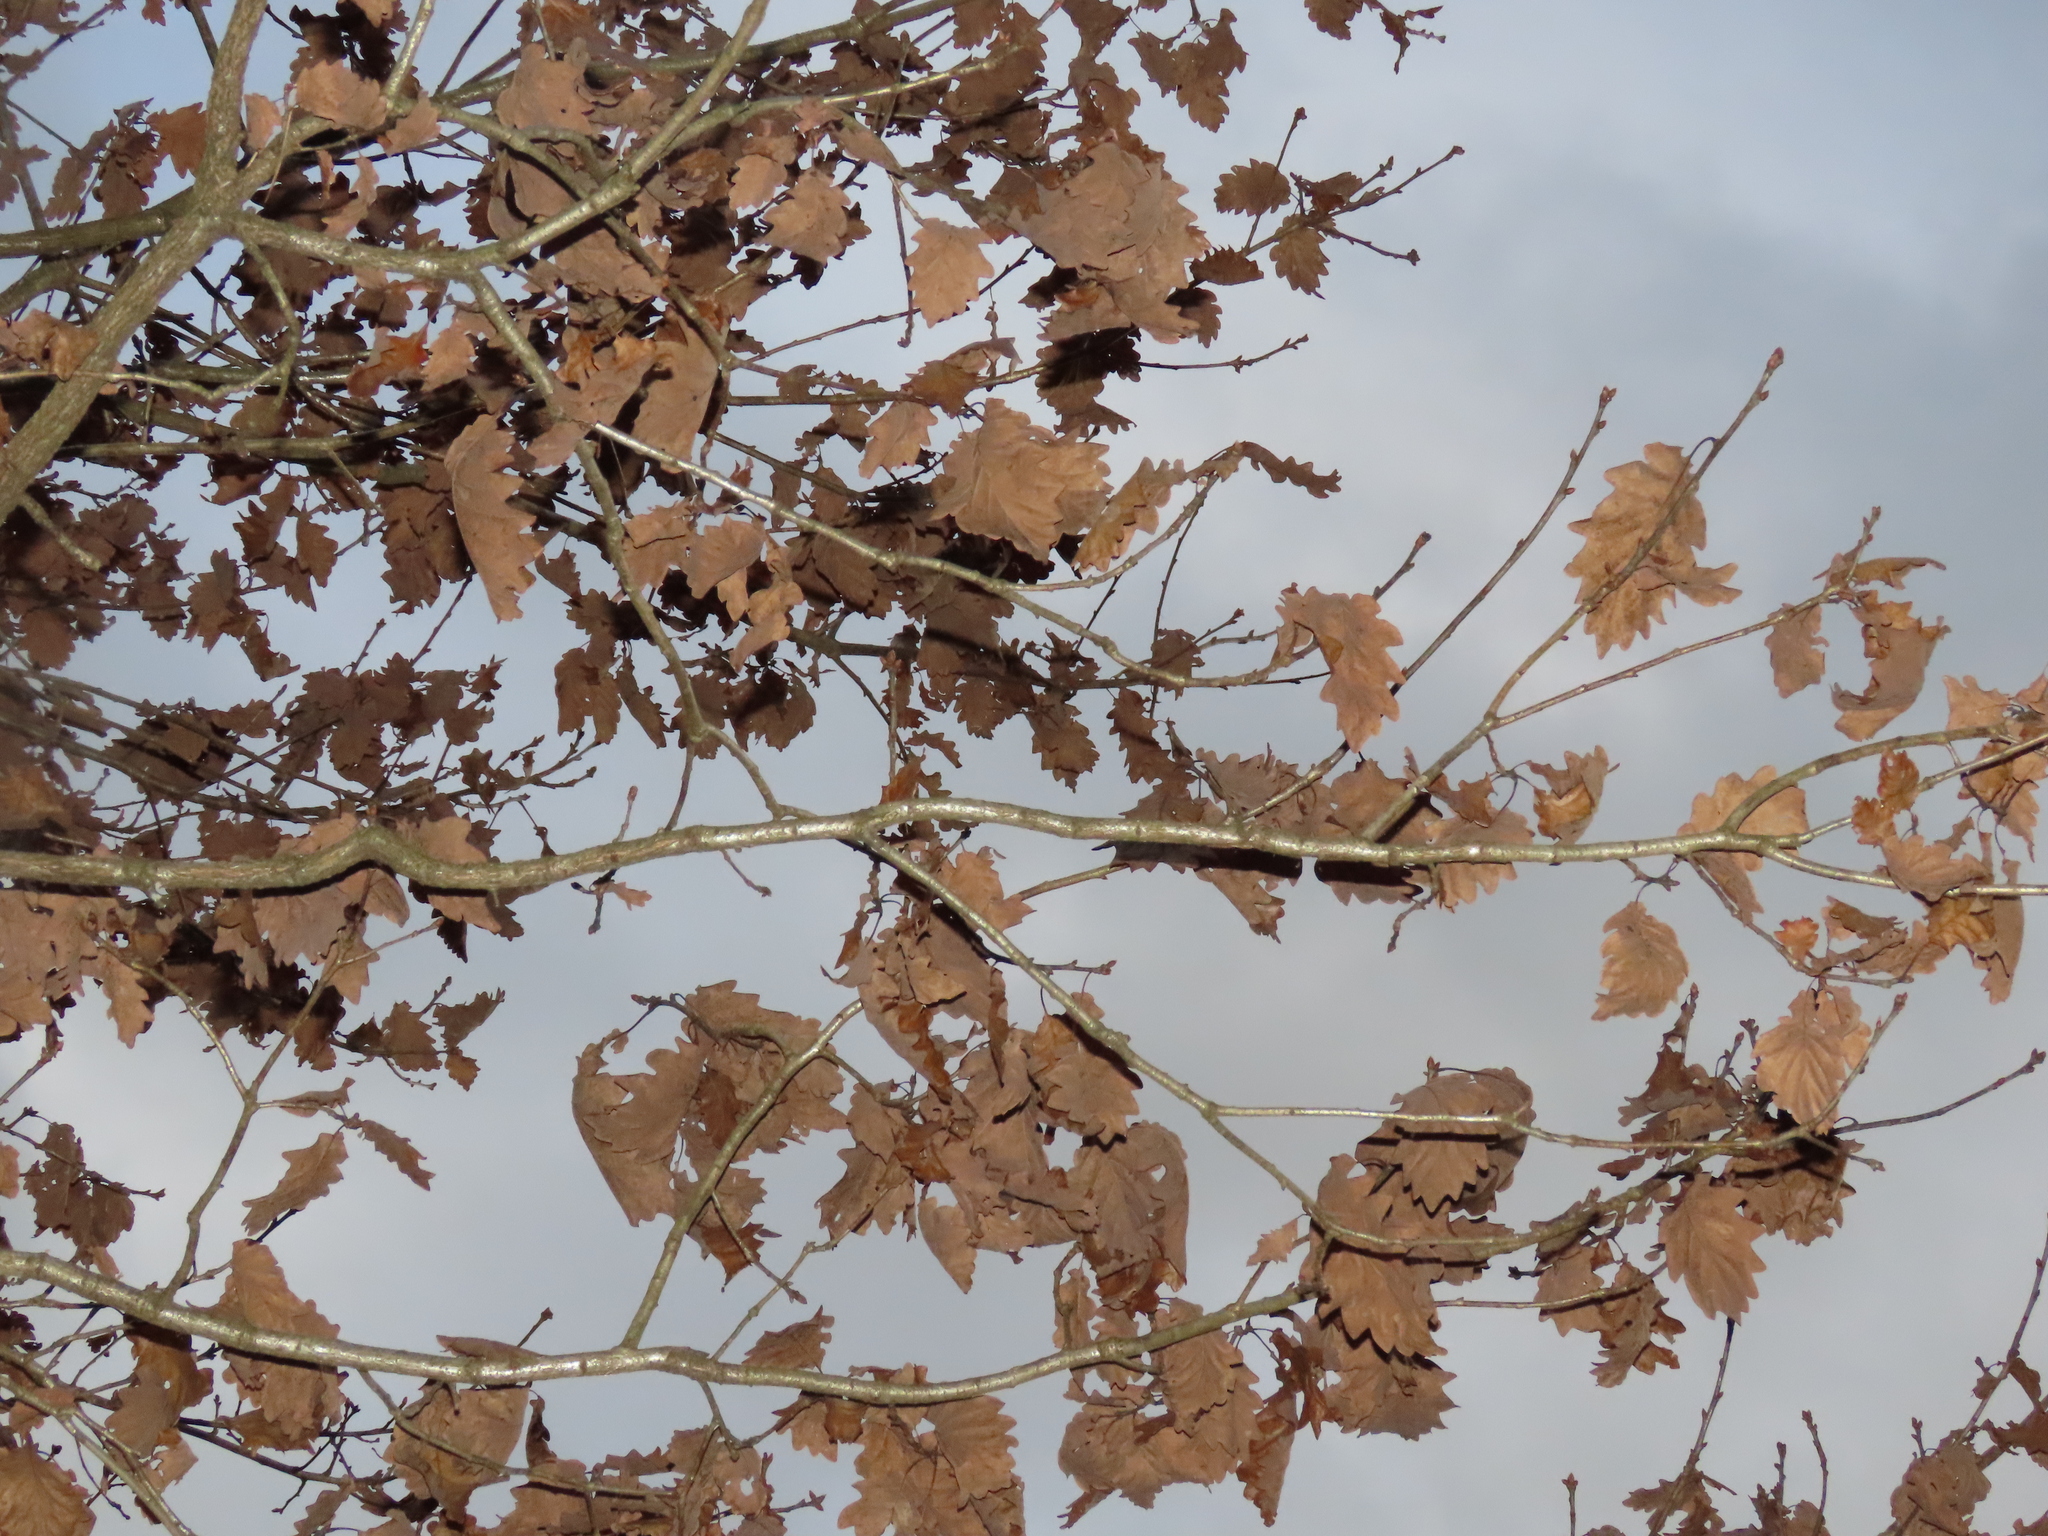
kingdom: Plantae
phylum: Tracheophyta
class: Magnoliopsida
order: Fagales
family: Fagaceae
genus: Quercus
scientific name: Quercus petraea
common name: Sessile oak
